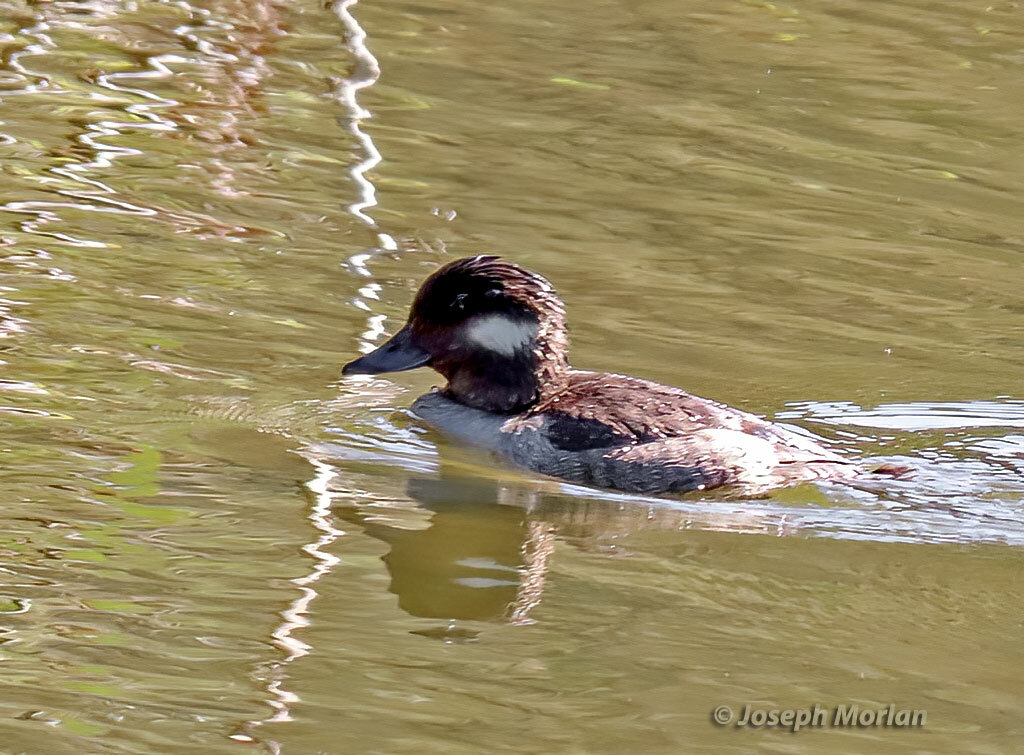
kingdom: Animalia
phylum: Chordata
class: Aves
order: Anseriformes
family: Anatidae
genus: Bucephala
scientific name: Bucephala albeola
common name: Bufflehead
